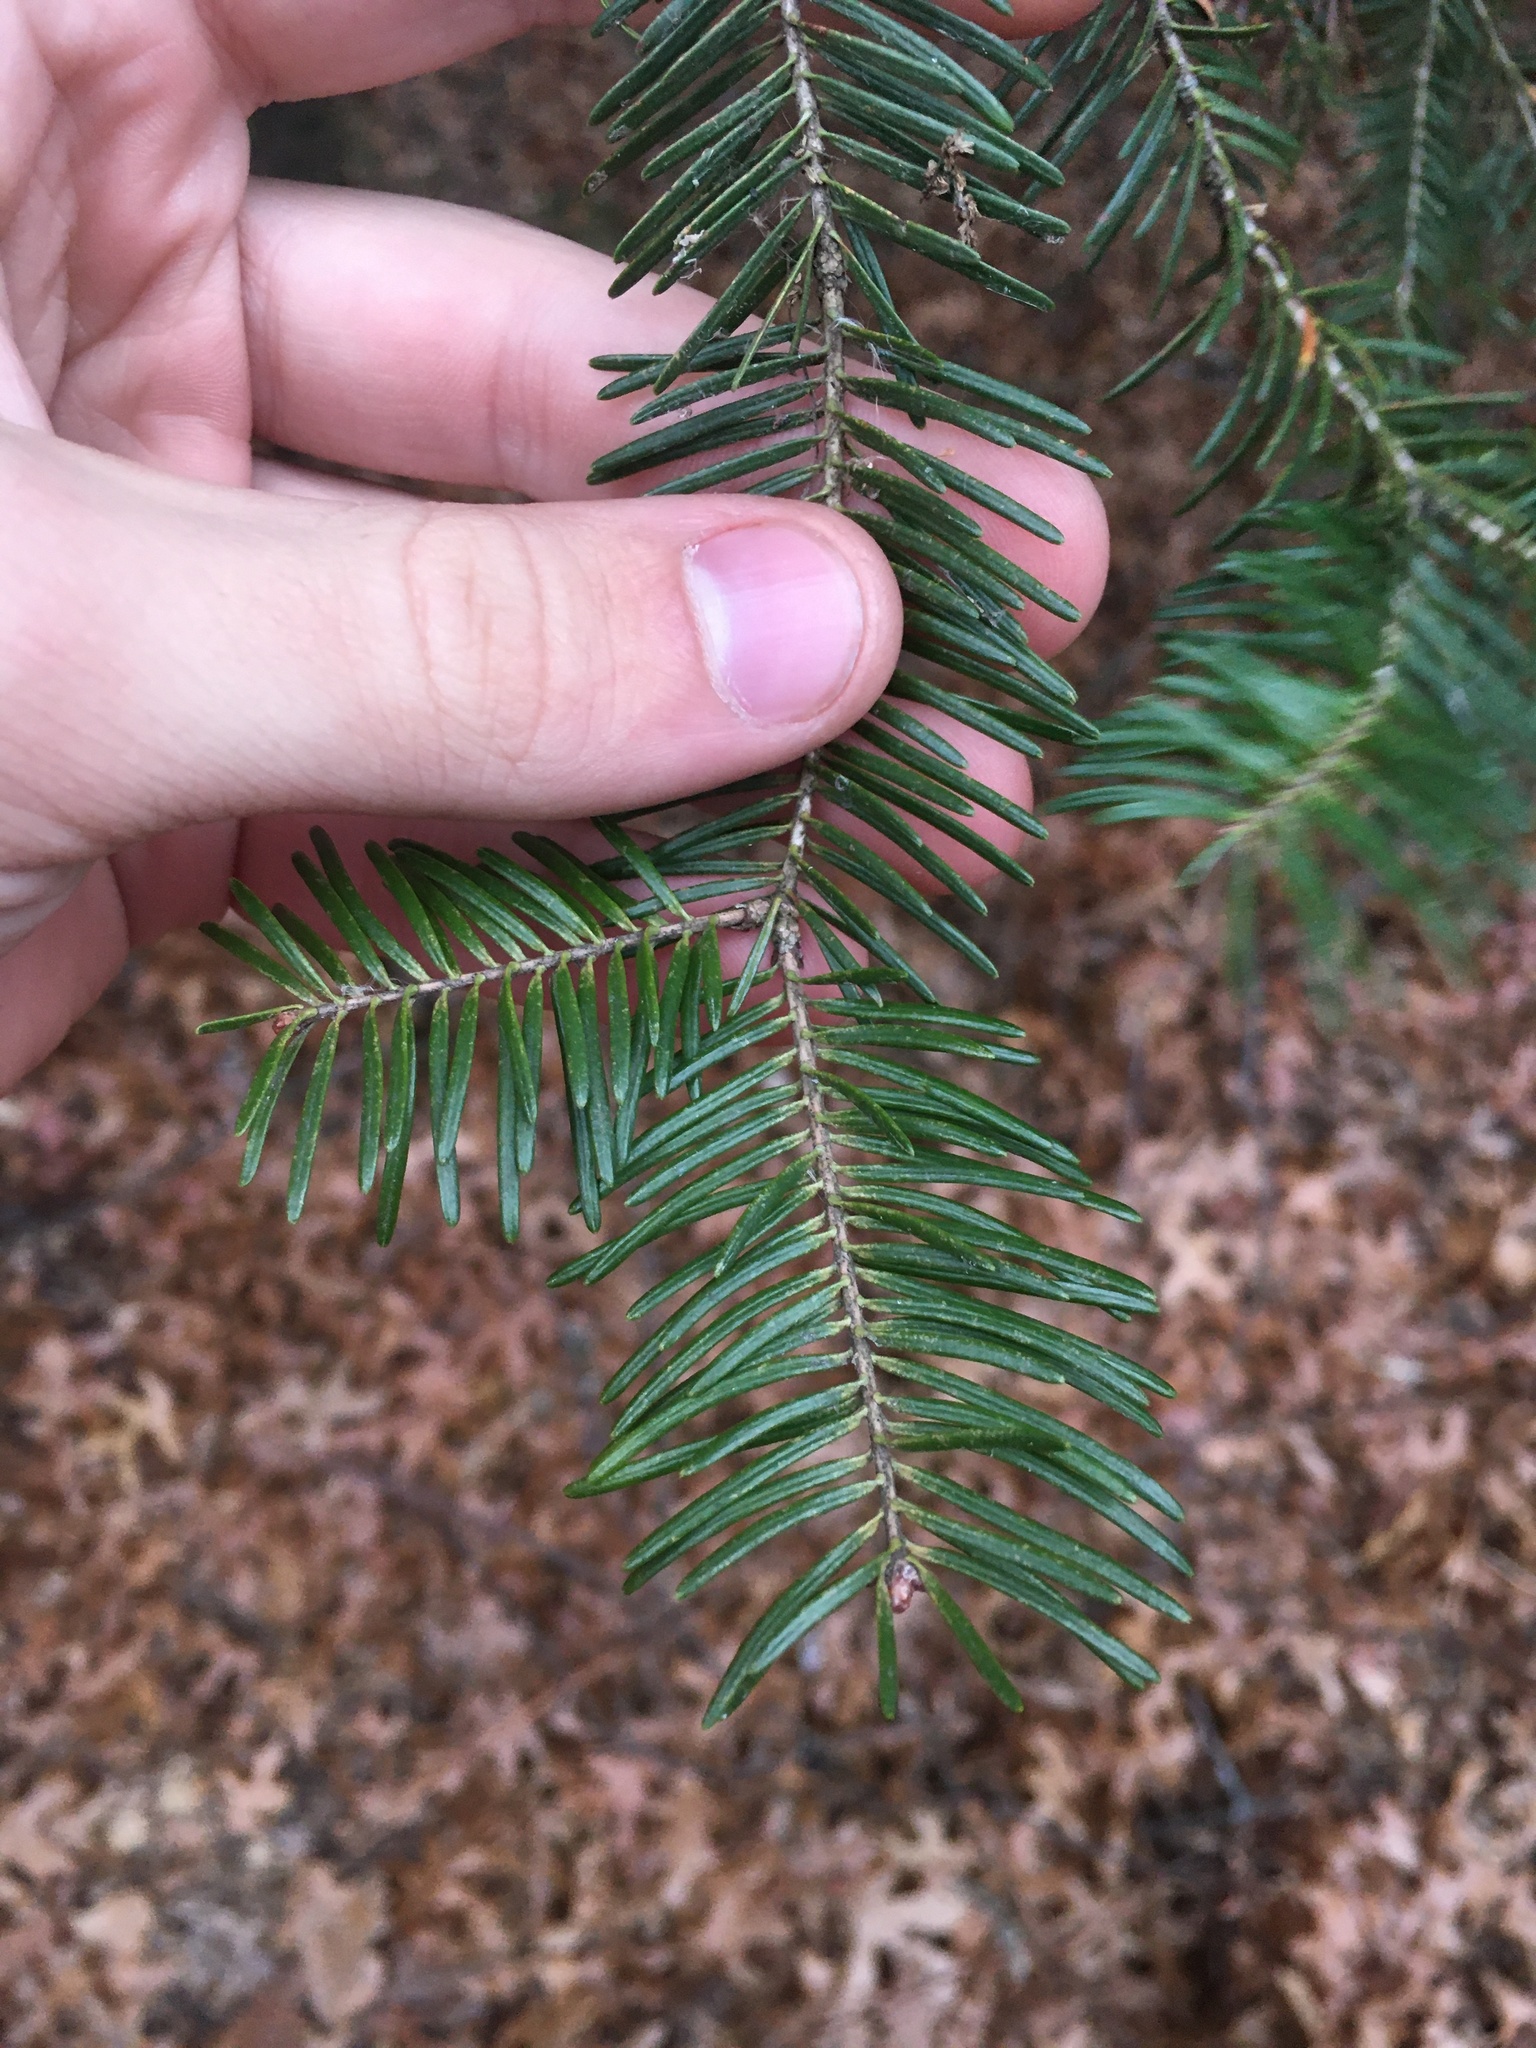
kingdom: Plantae
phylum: Tracheophyta
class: Pinopsida
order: Pinales
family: Pinaceae
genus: Abies
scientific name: Abies balsamea
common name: Balsam fir
